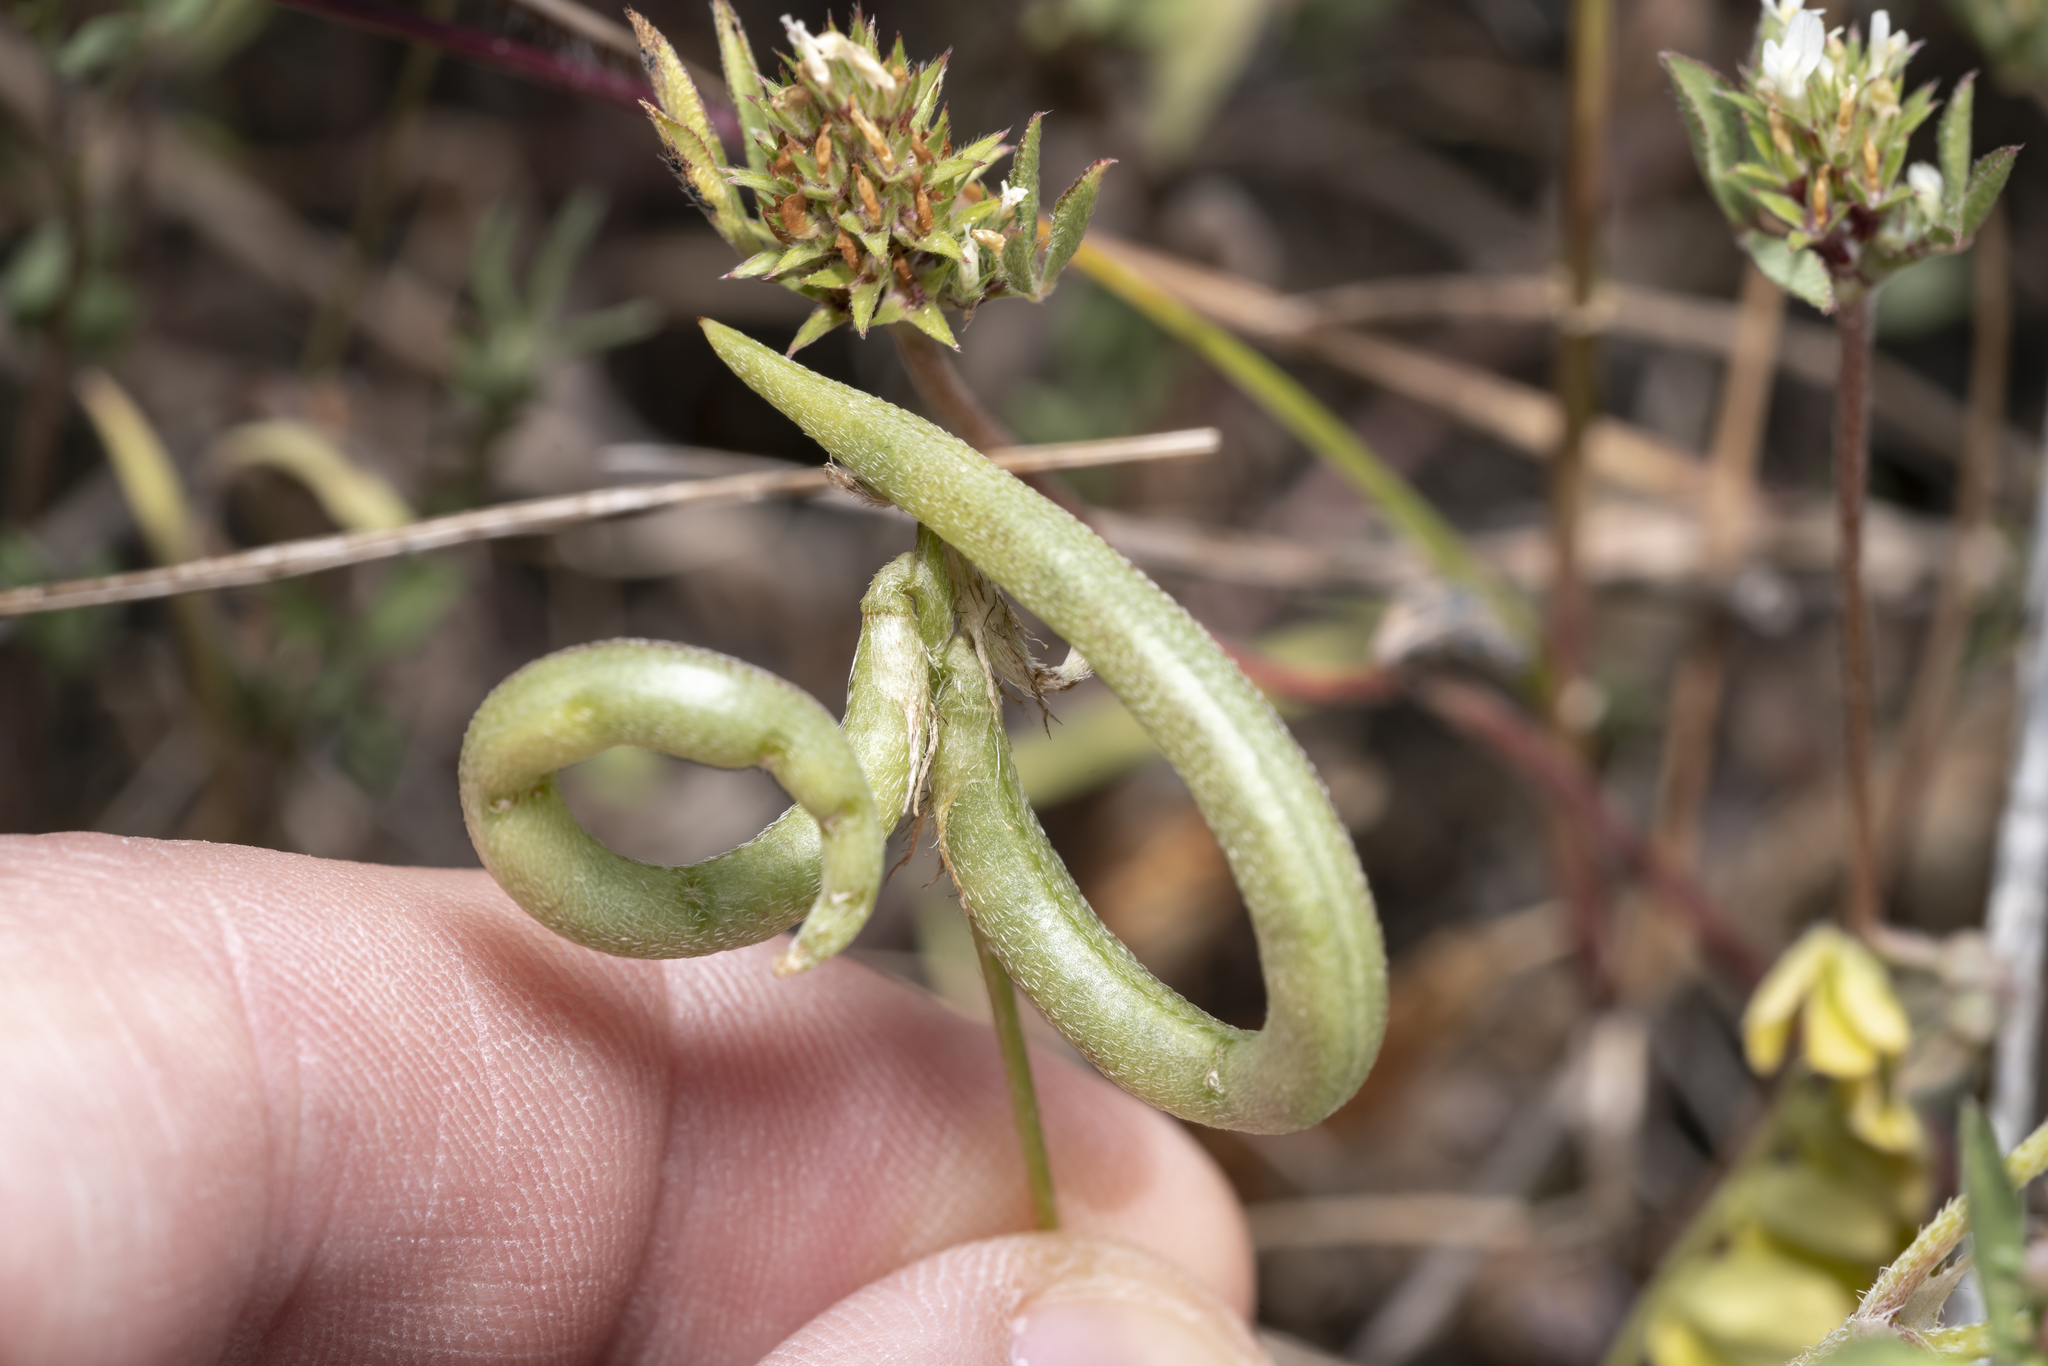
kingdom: Plantae
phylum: Tracheophyta
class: Magnoliopsida
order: Fabales
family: Fabaceae
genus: Astragalus
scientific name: Astragalus hamosus
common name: European milkvetch
